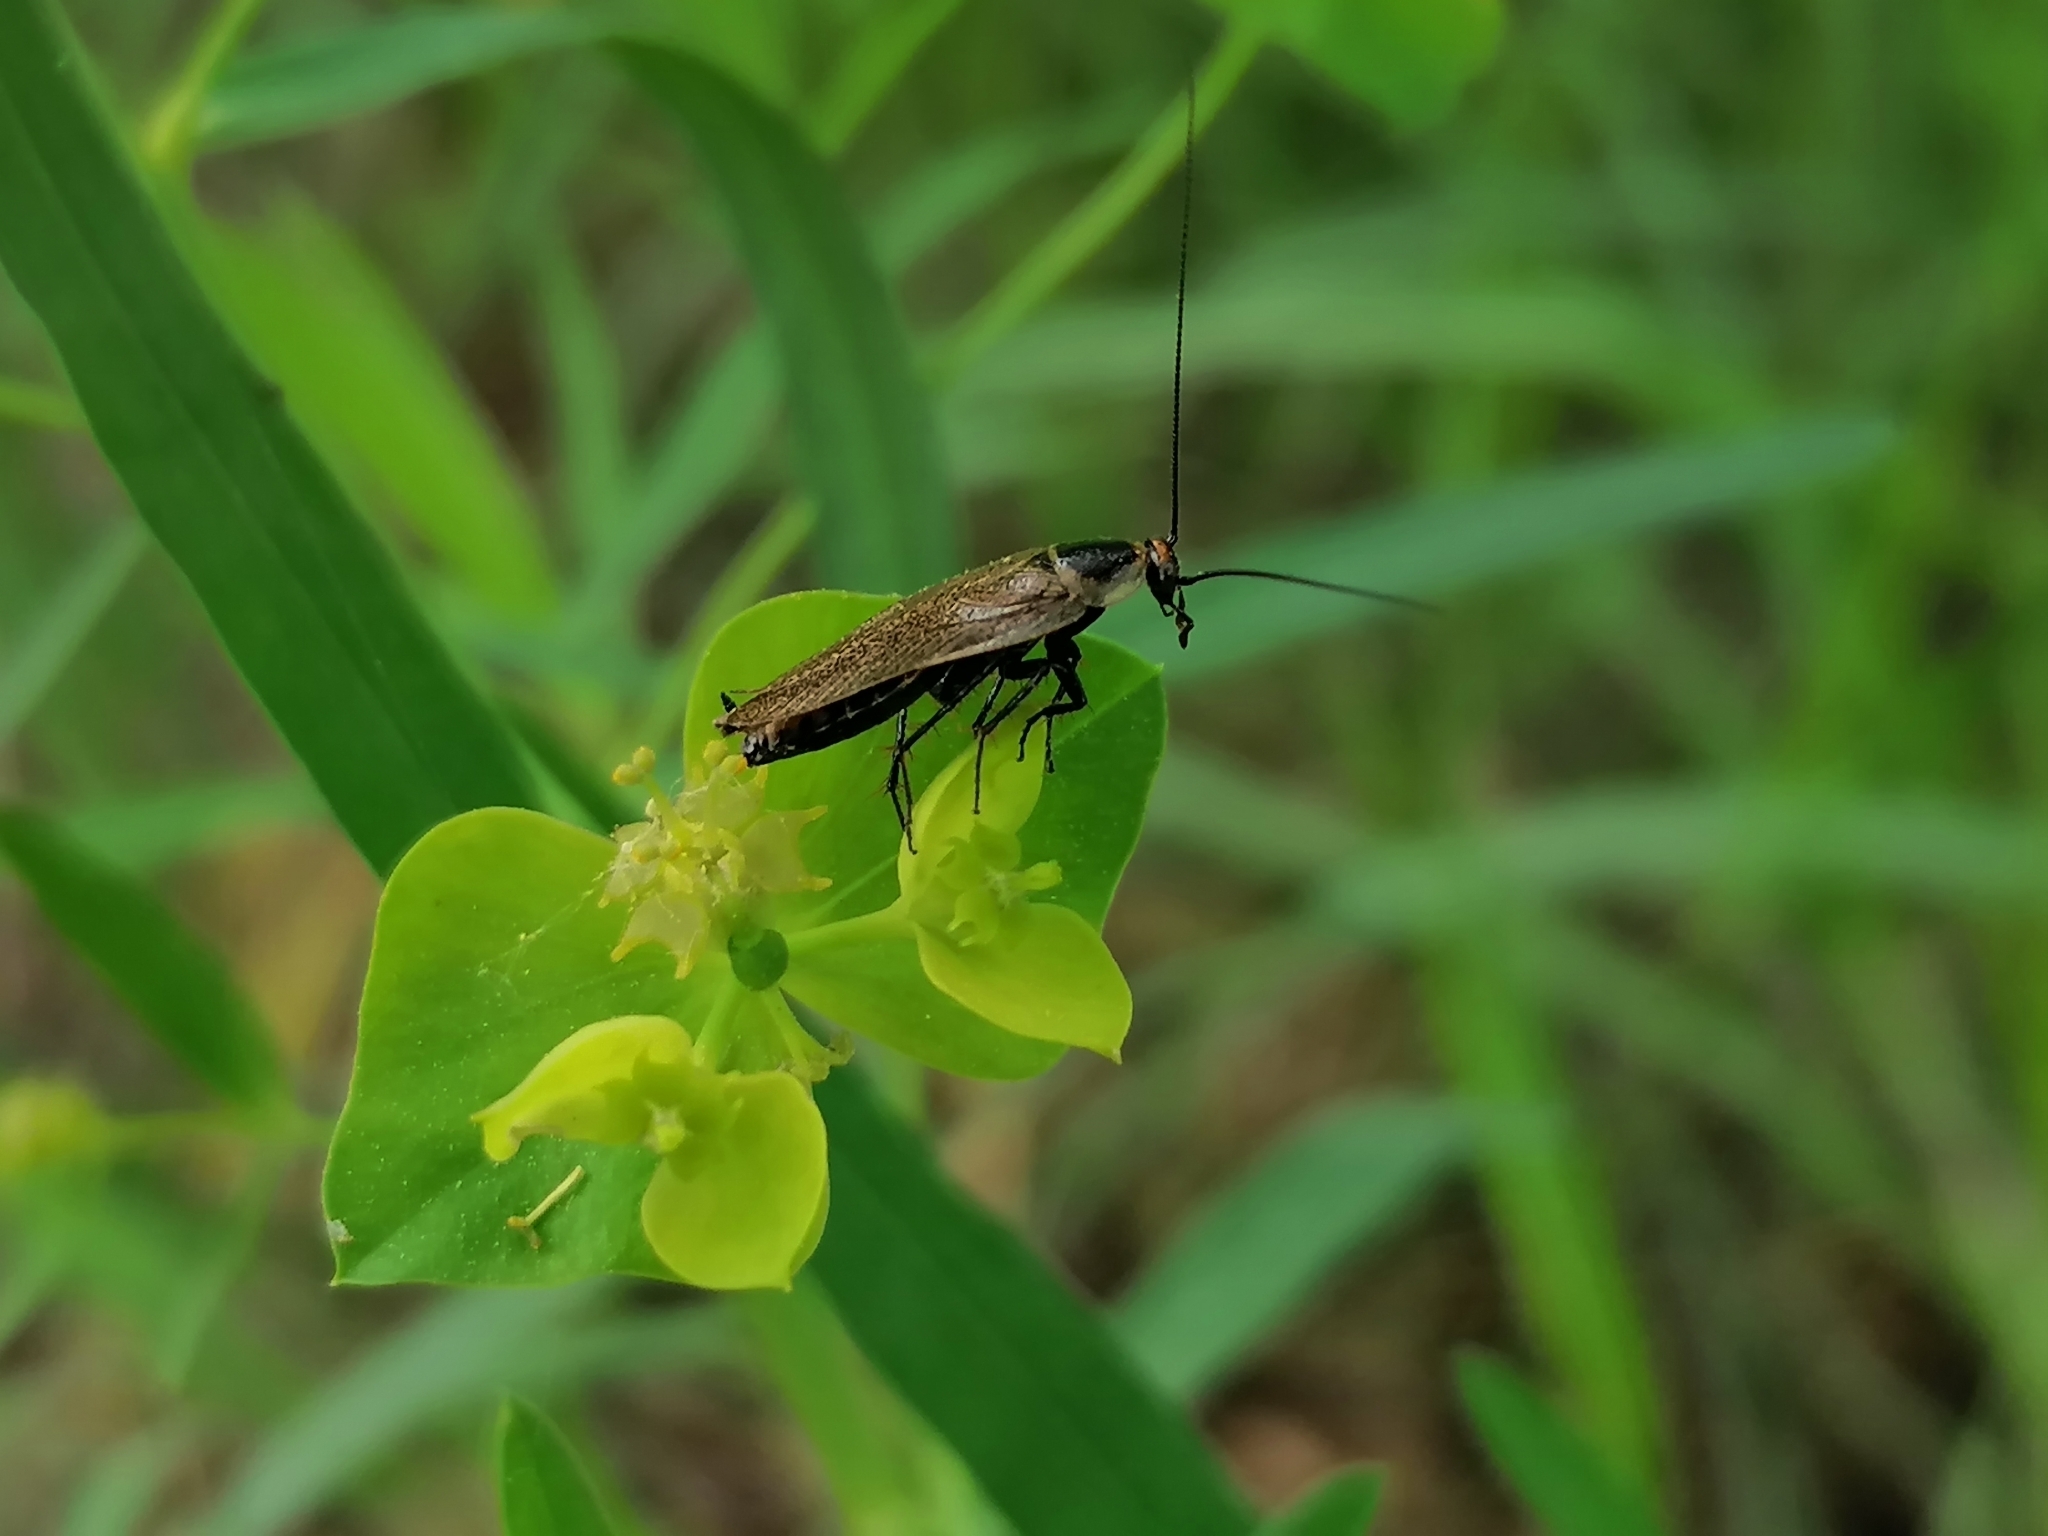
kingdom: Animalia
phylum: Arthropoda
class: Insecta
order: Blattodea
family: Ectobiidae
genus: Ectobius
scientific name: Ectobius erythronotus
